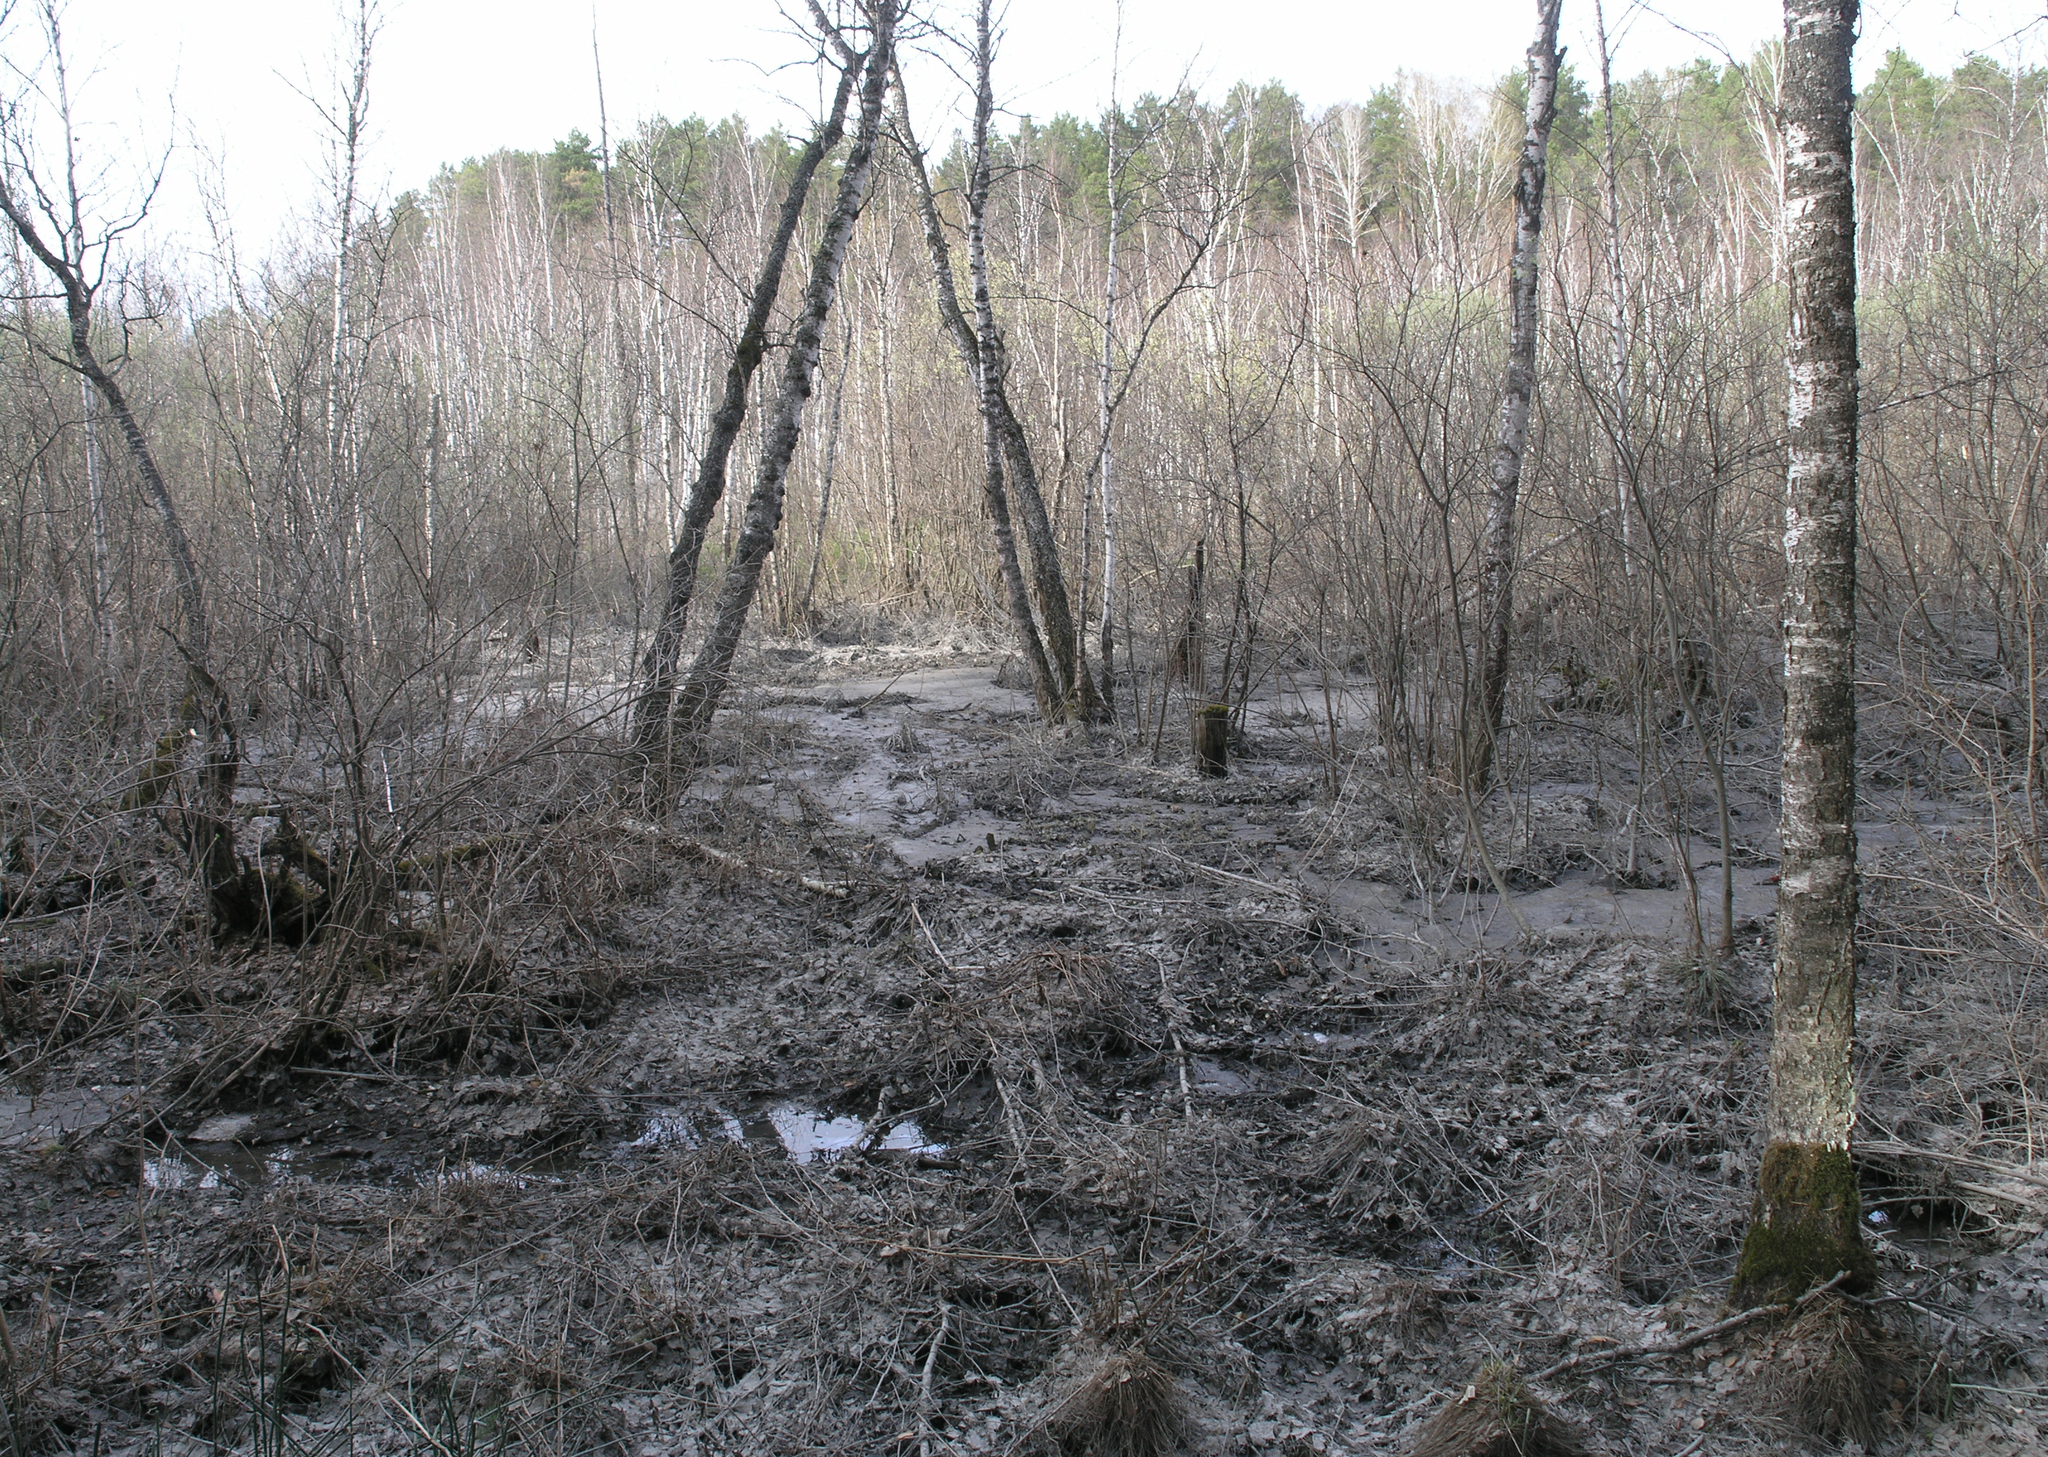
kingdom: Plantae
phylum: Tracheophyta
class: Magnoliopsida
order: Fagales
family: Betulaceae
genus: Betula
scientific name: Betula pubescens
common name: Downy birch
